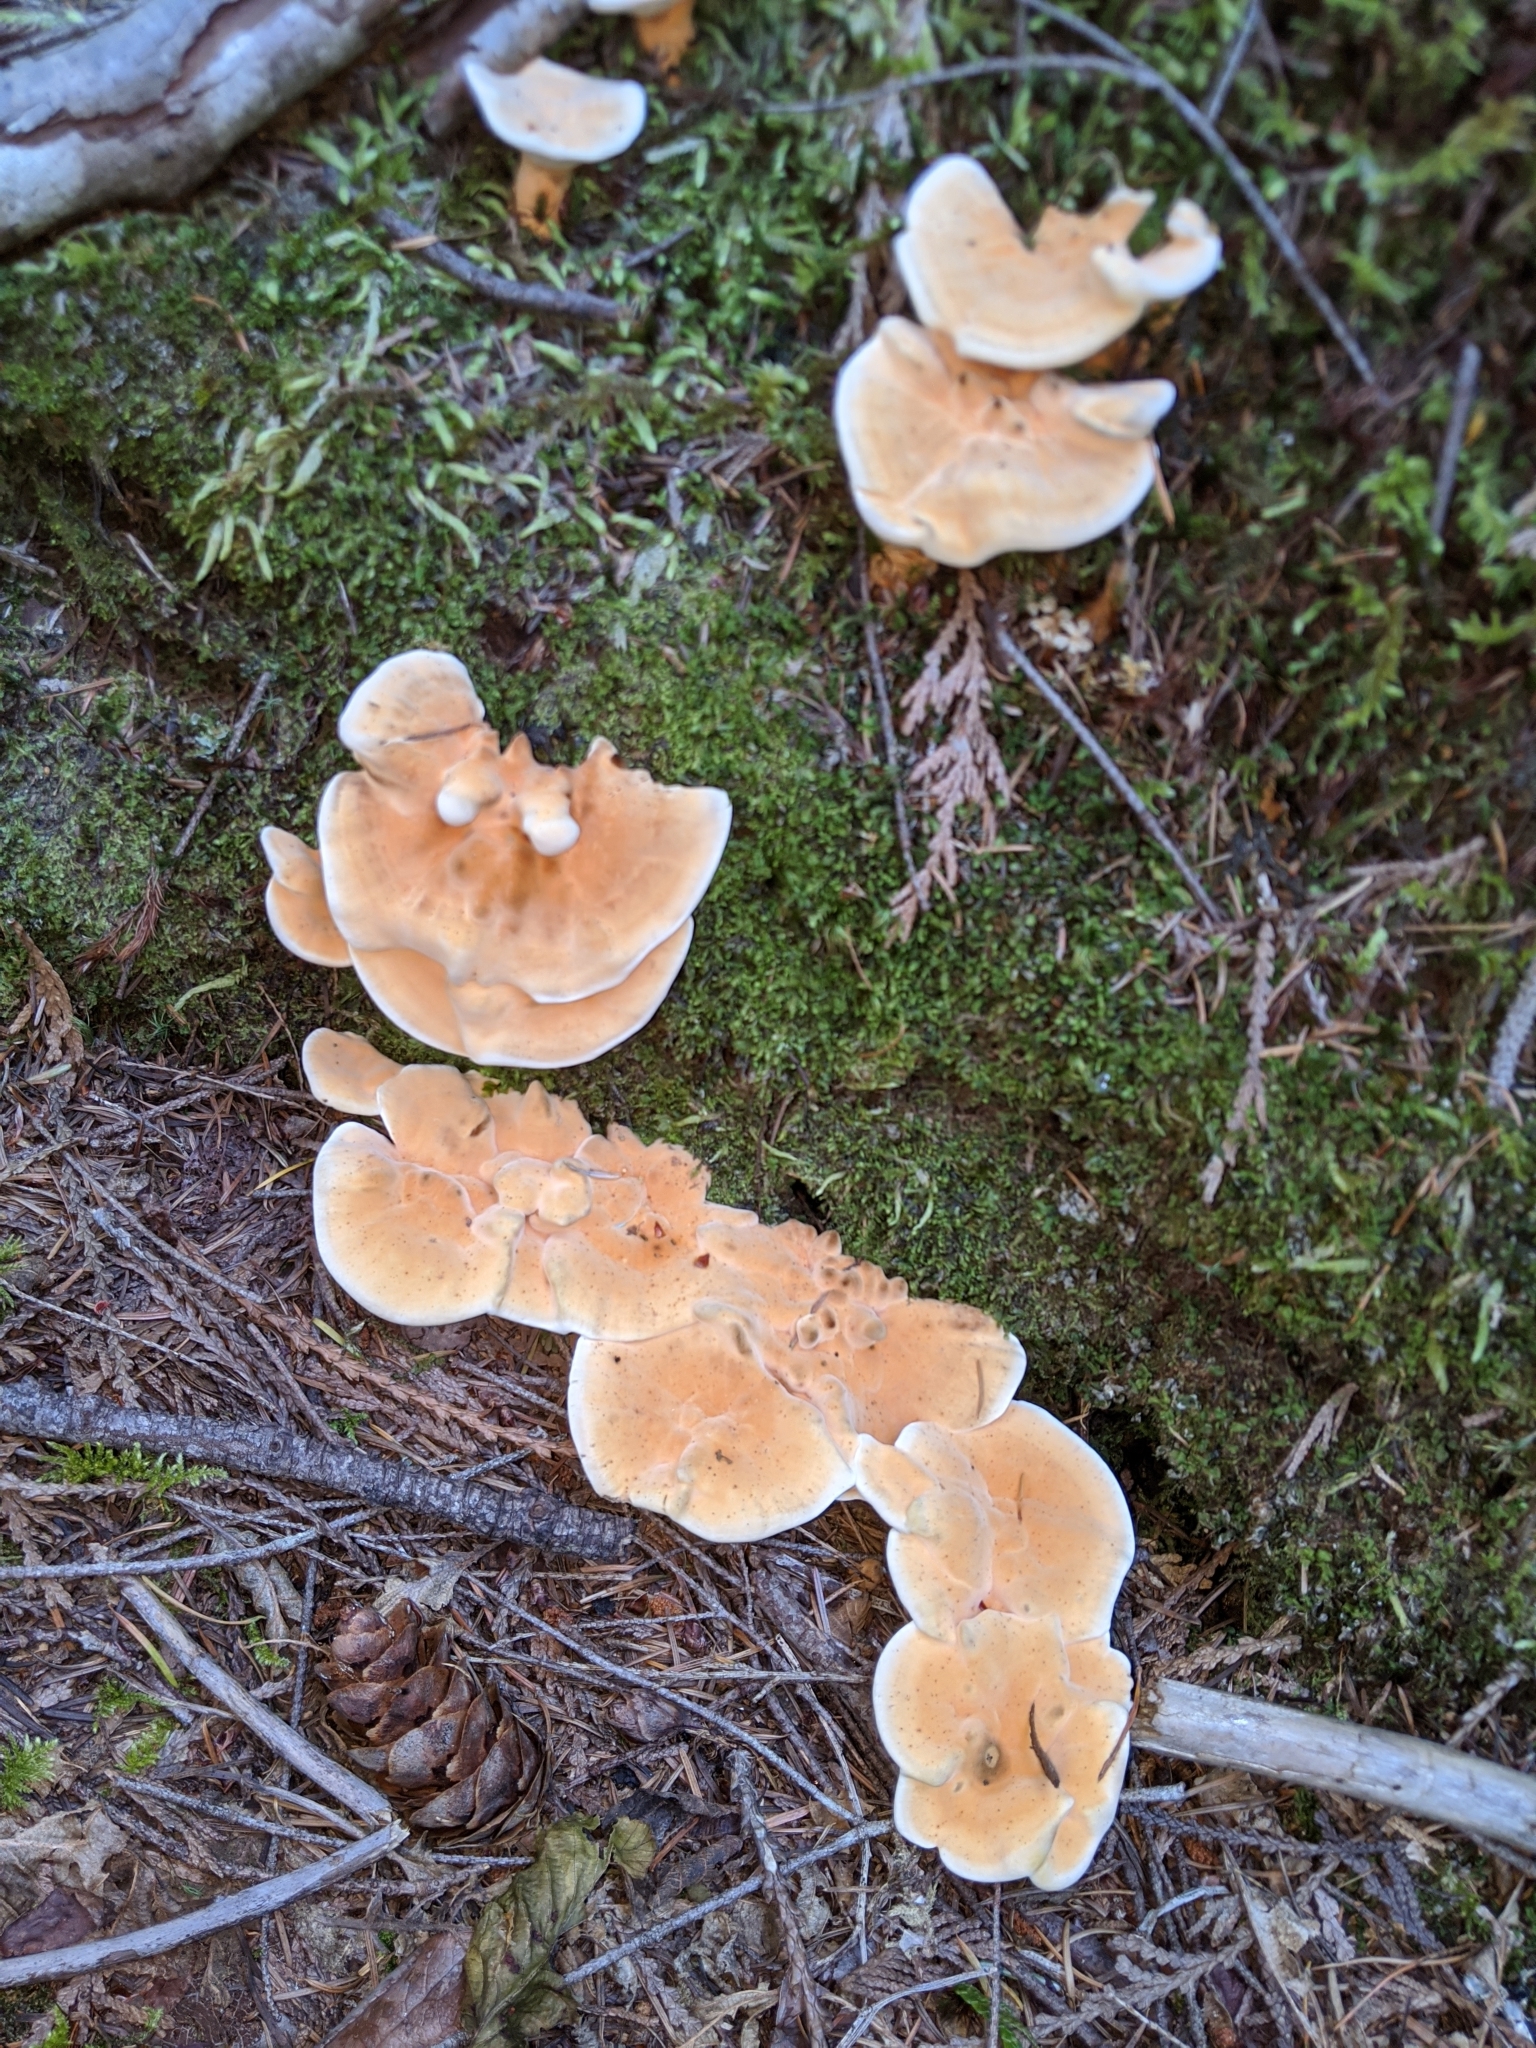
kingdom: Fungi
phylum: Basidiomycota
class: Agaricomycetes
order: Thelephorales
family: Bankeraceae
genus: Hydnellum
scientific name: Hydnellum aurantiacum
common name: Orange tooth
